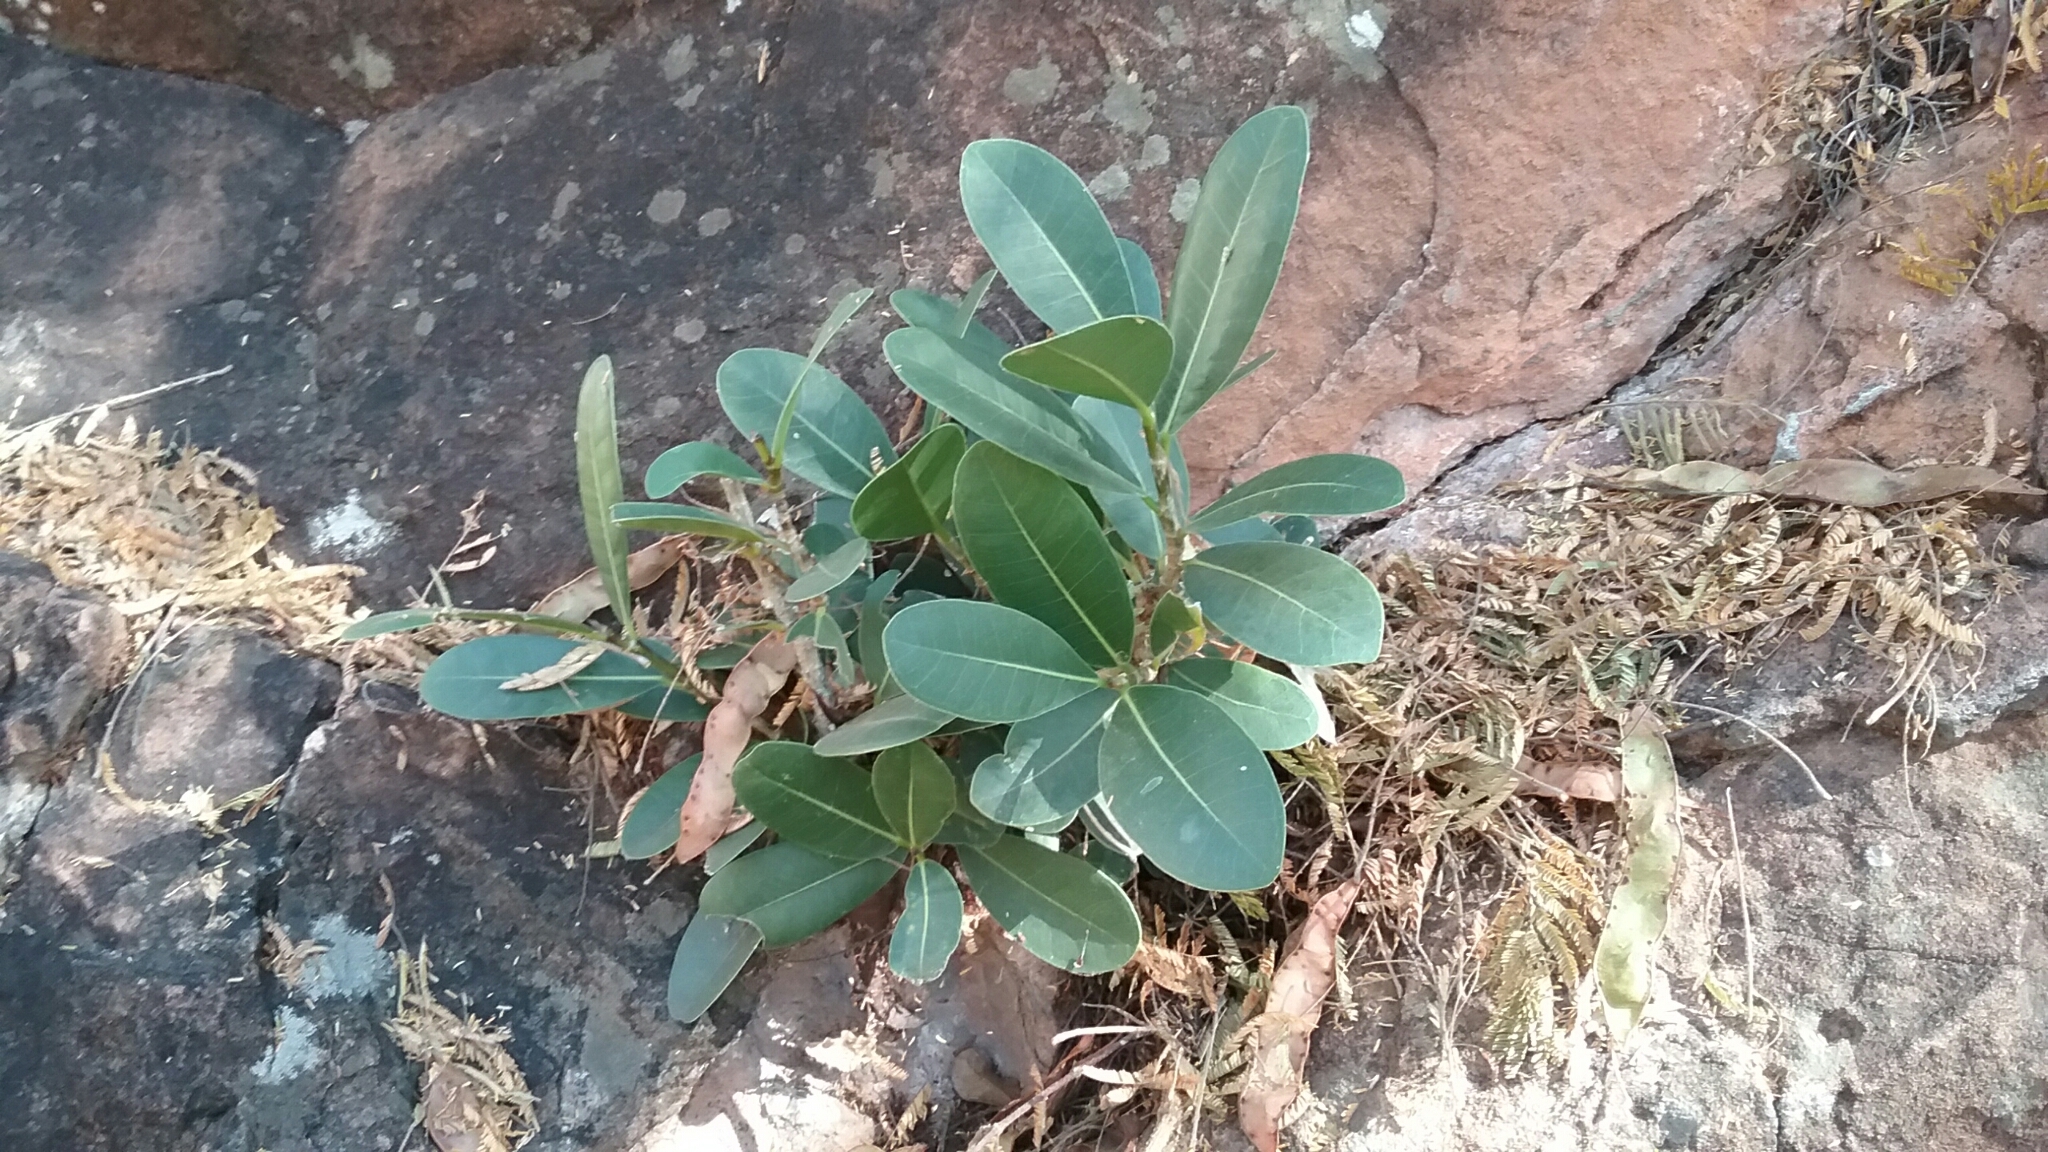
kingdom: Plantae
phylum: Tracheophyta
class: Magnoliopsida
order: Rosales
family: Moraceae
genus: Ficus
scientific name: Ficus ilicina
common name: Laurel rock fig
